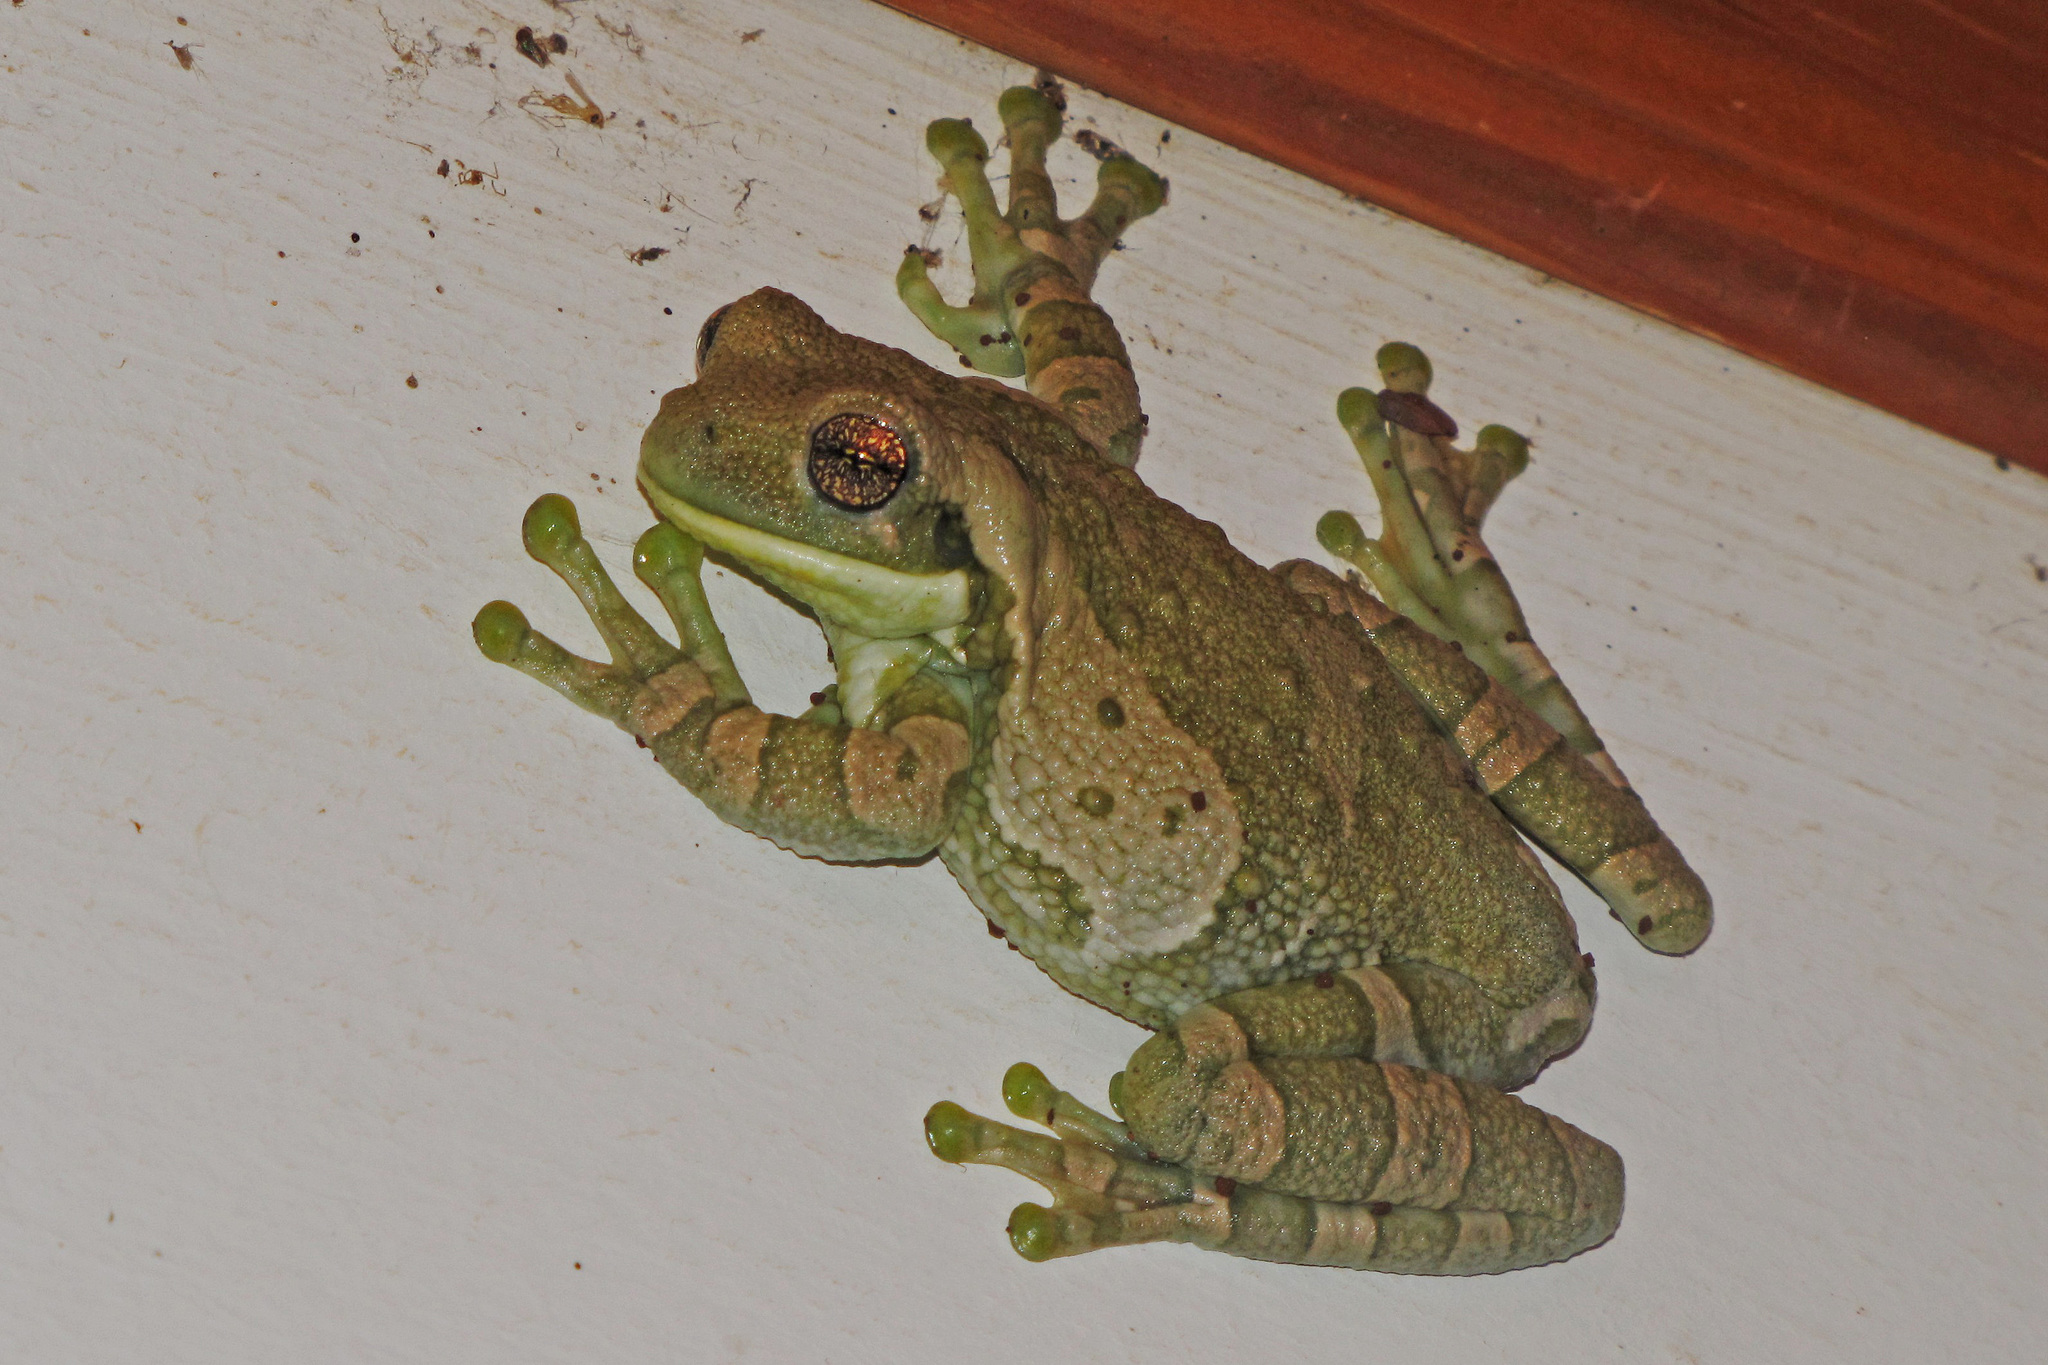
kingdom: Animalia
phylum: Chordata
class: Amphibia
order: Anura
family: Hylidae
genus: Trachycephalus
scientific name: Trachycephalus typhonius
